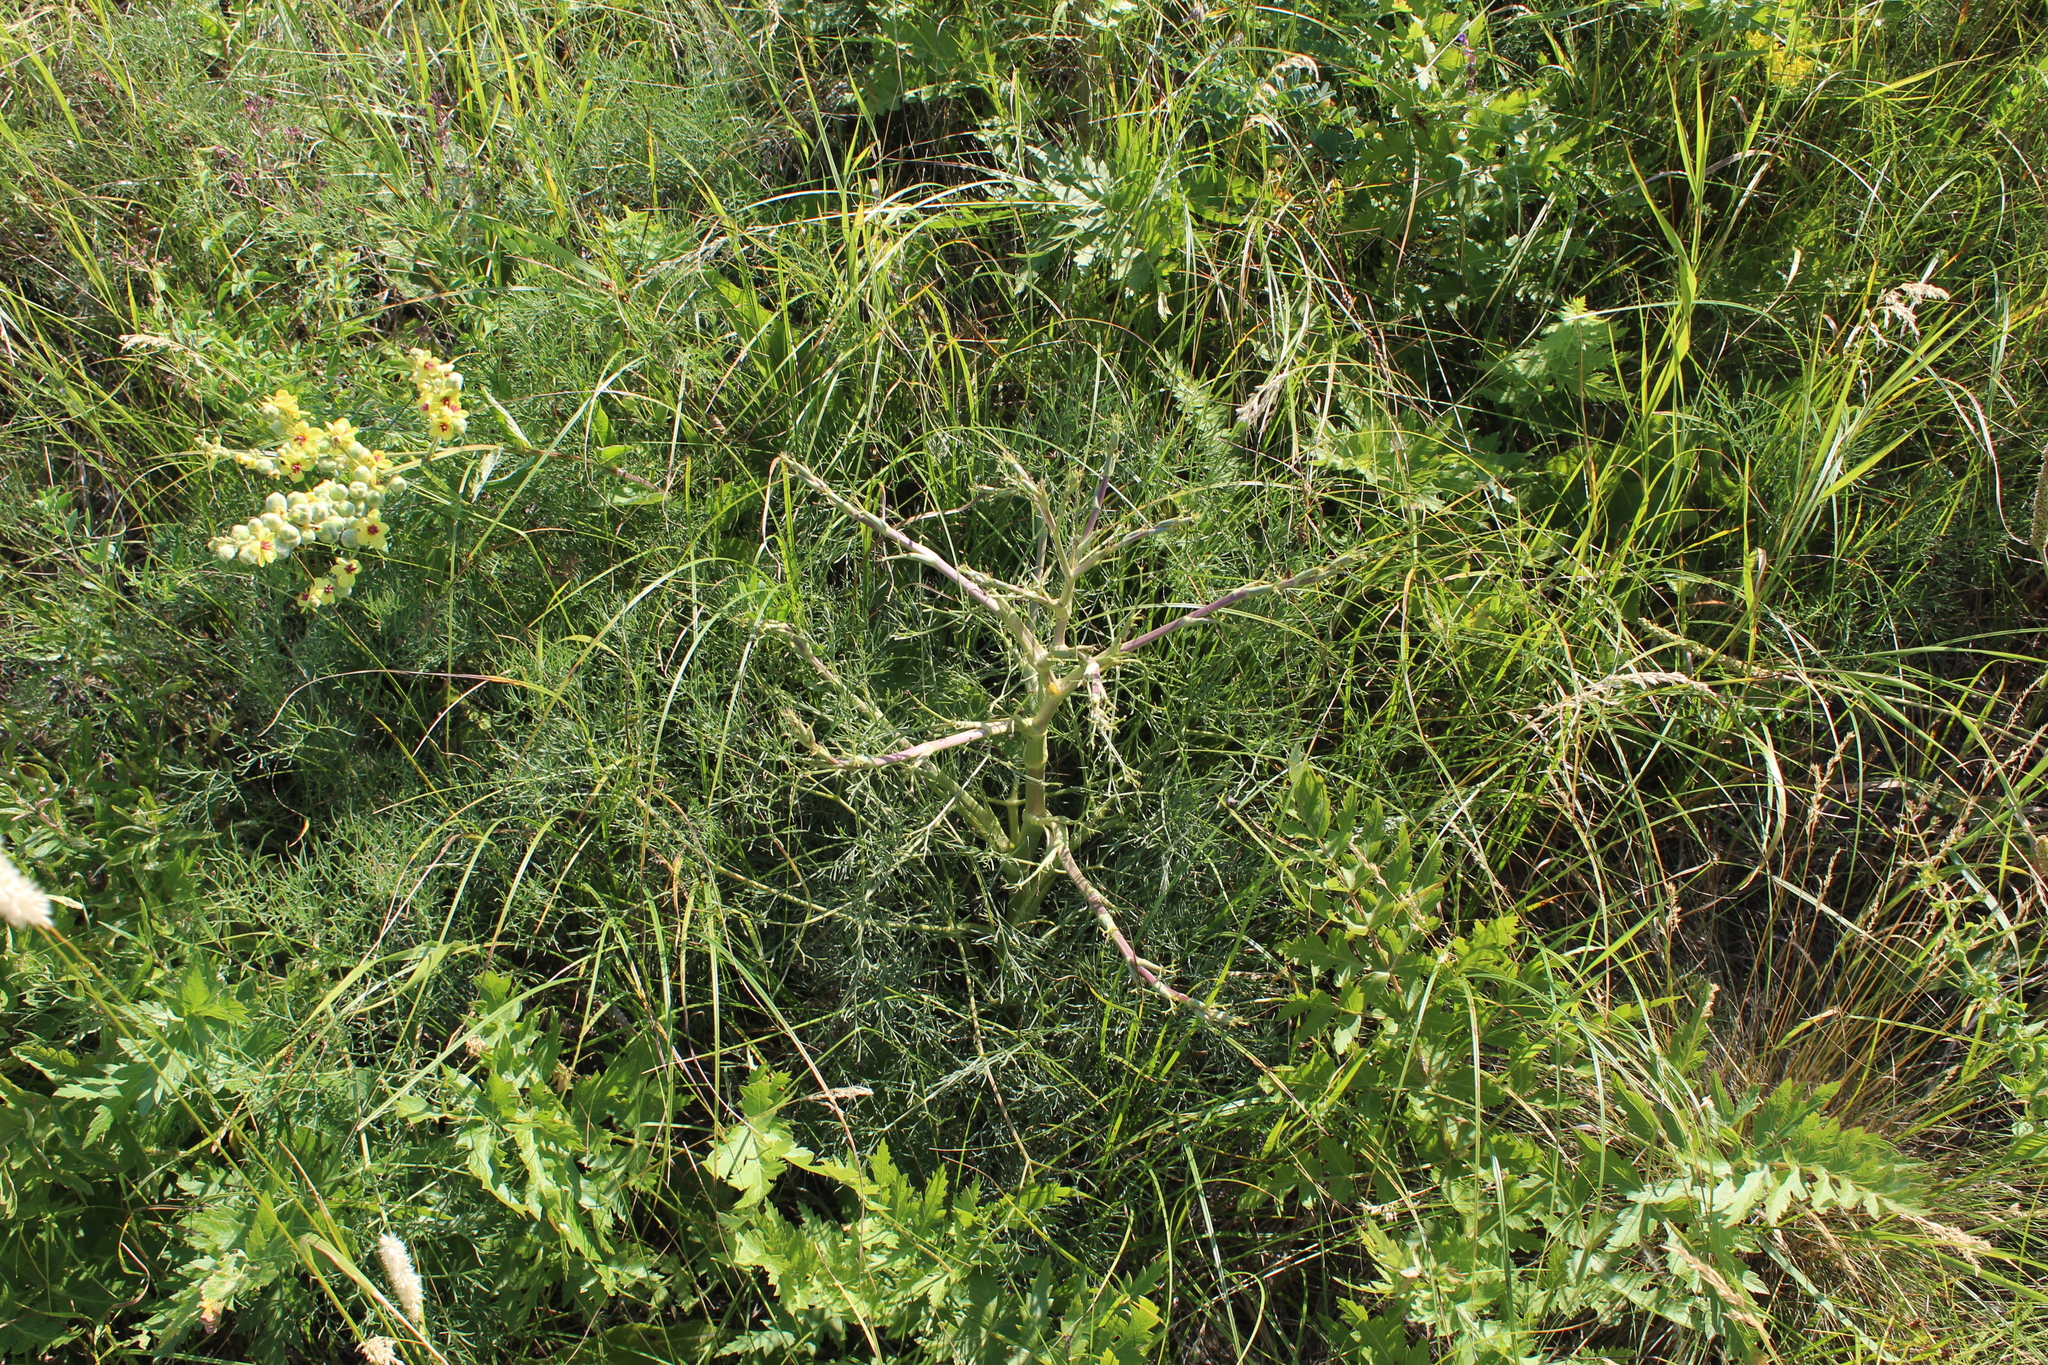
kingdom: Plantae
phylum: Tracheophyta
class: Magnoliopsida
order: Apiales
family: Apiaceae
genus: Seseli
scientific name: Seseli arenarium
